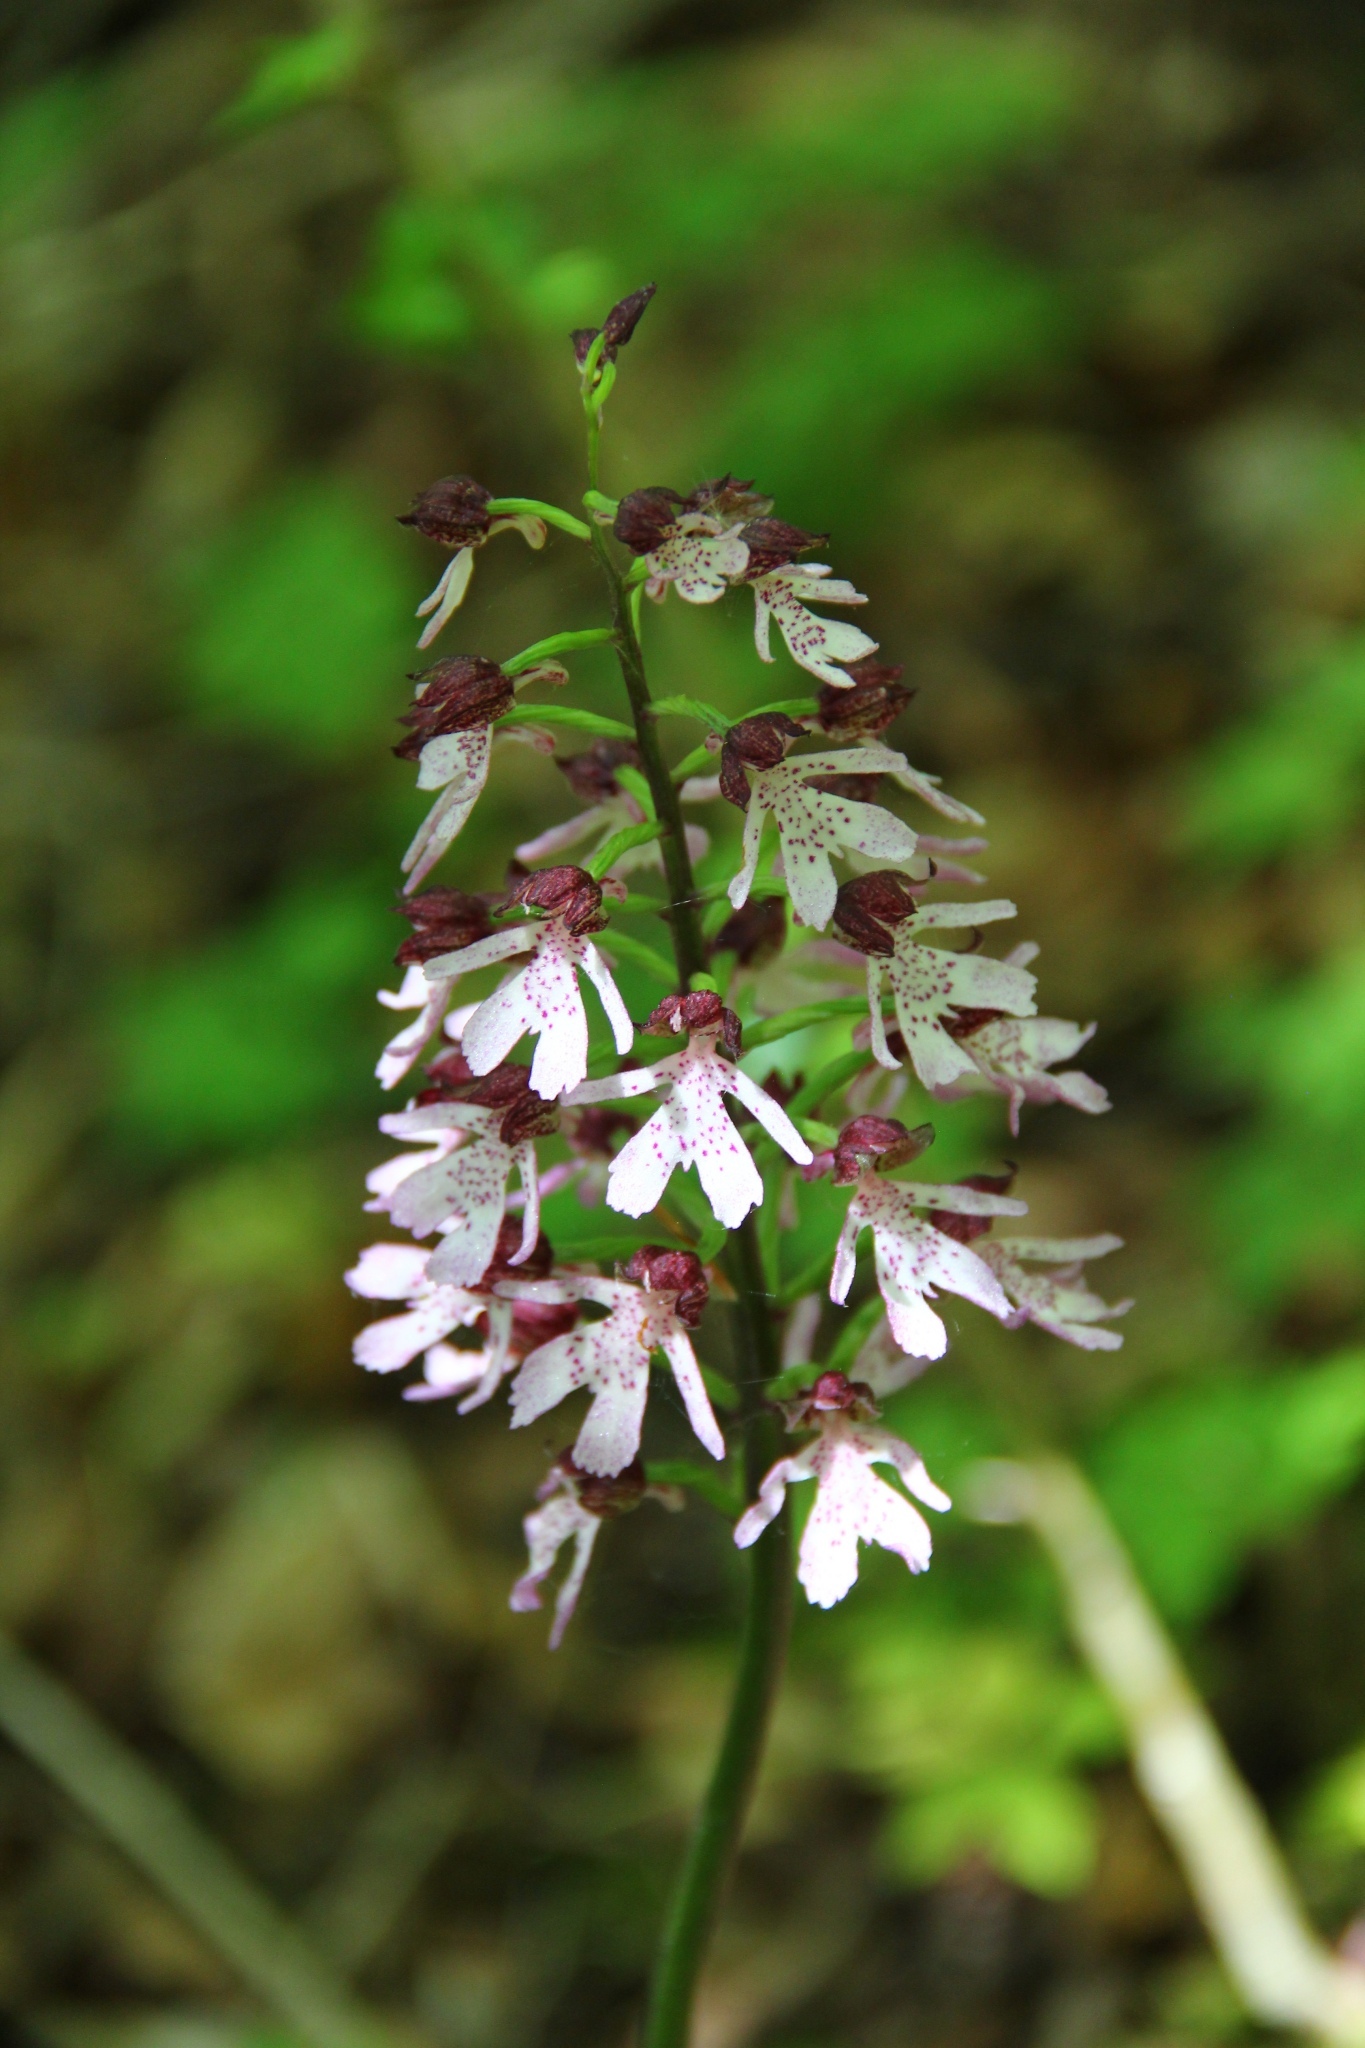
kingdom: Plantae
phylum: Tracheophyta
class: Liliopsida
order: Asparagales
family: Orchidaceae
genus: Orchis
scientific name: Orchis purpurea
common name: Lady orchid
